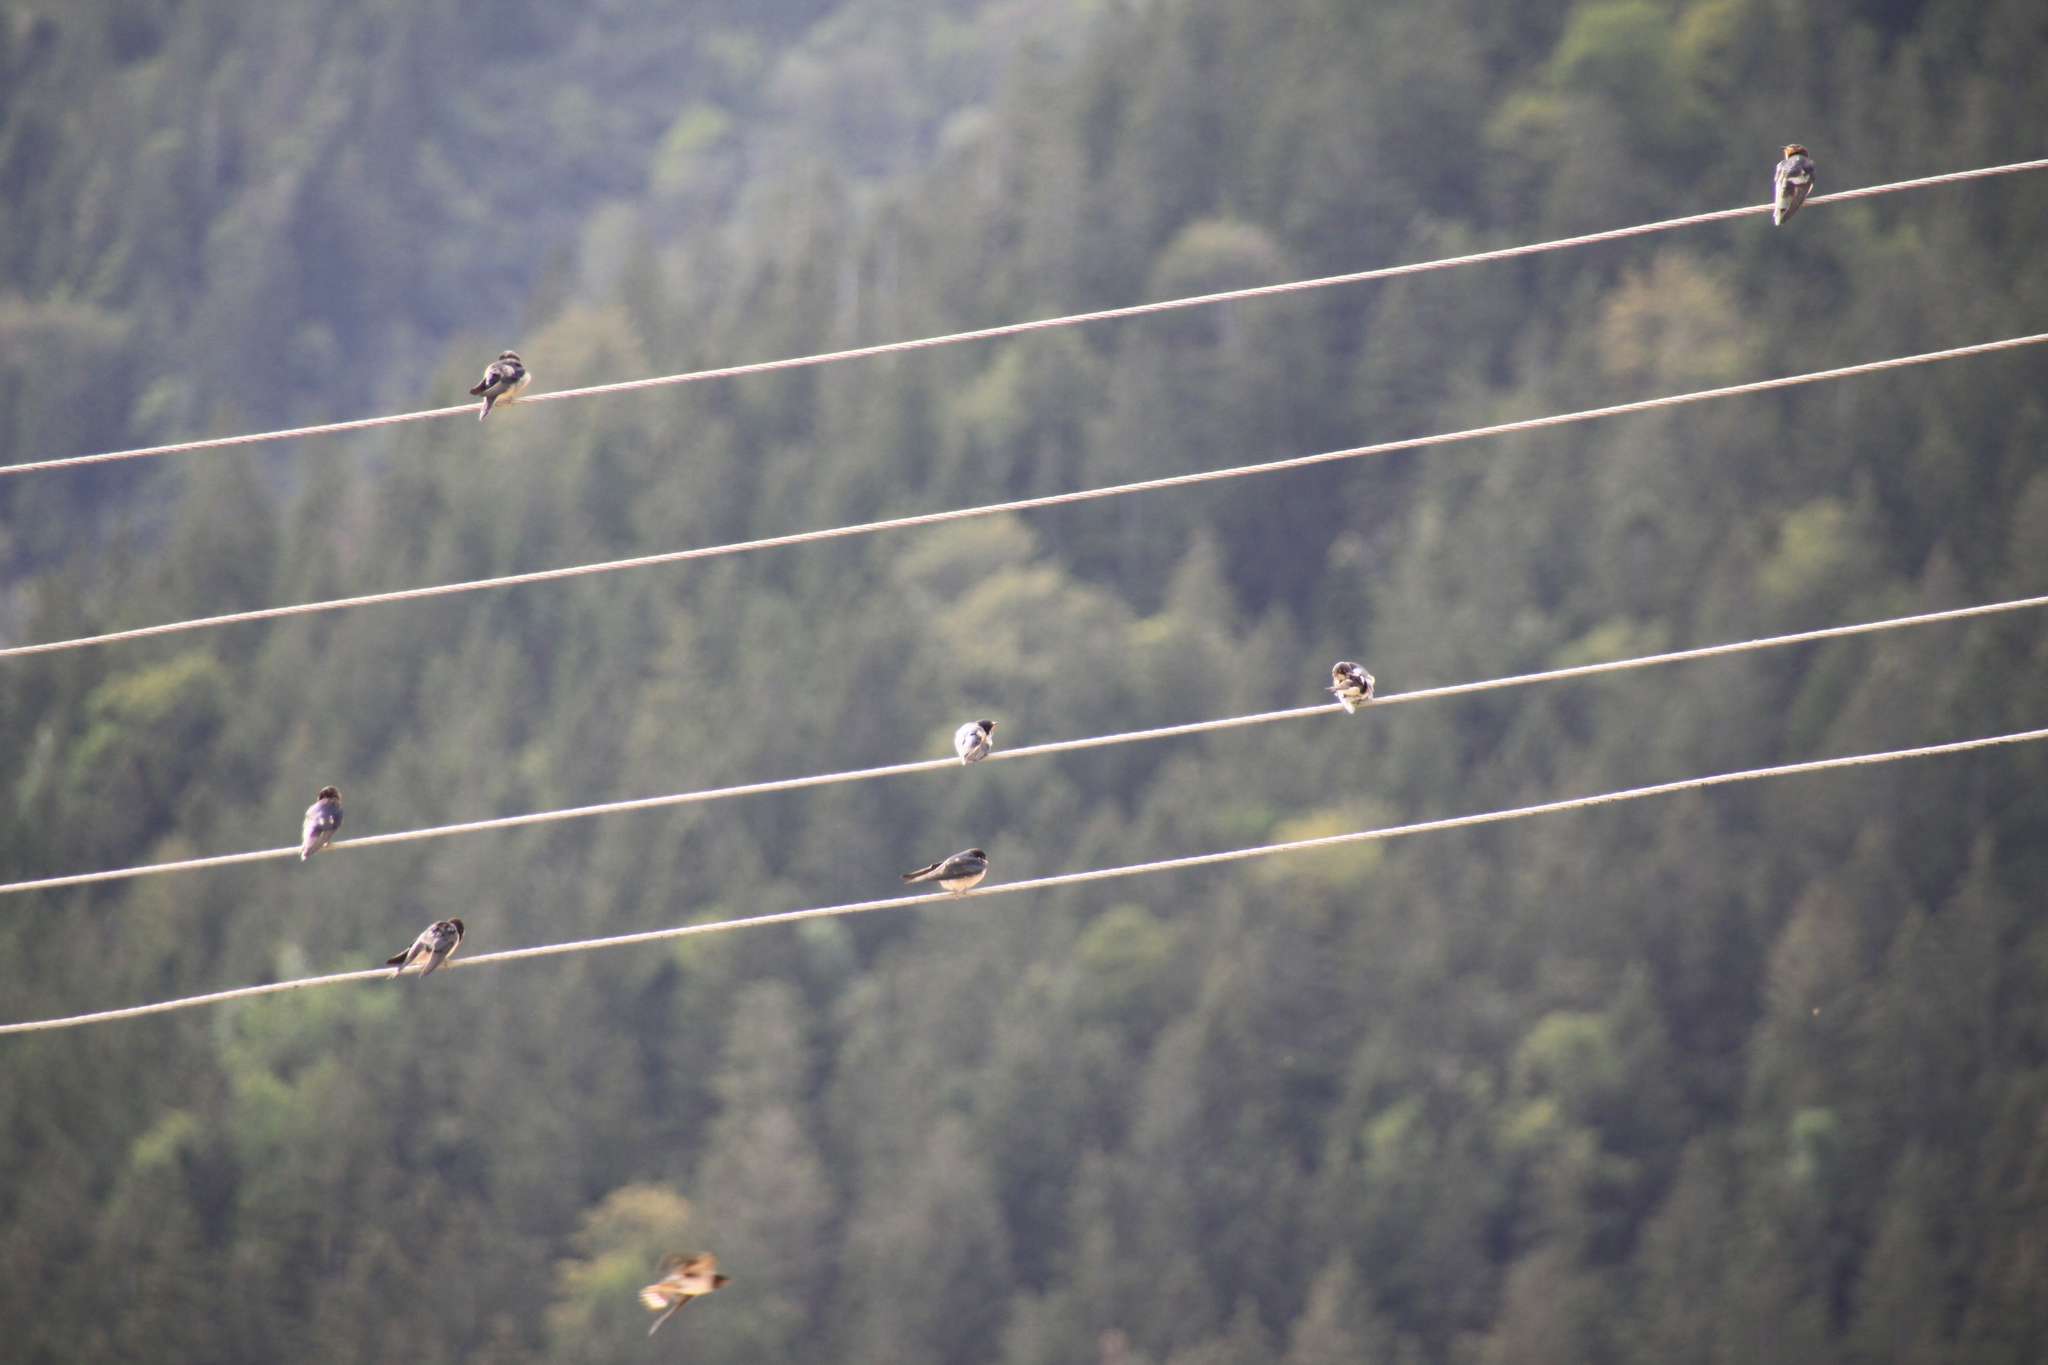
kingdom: Animalia
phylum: Chordata
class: Aves
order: Passeriformes
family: Hirundinidae
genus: Hirundo
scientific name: Hirundo rustica
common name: Barn swallow
